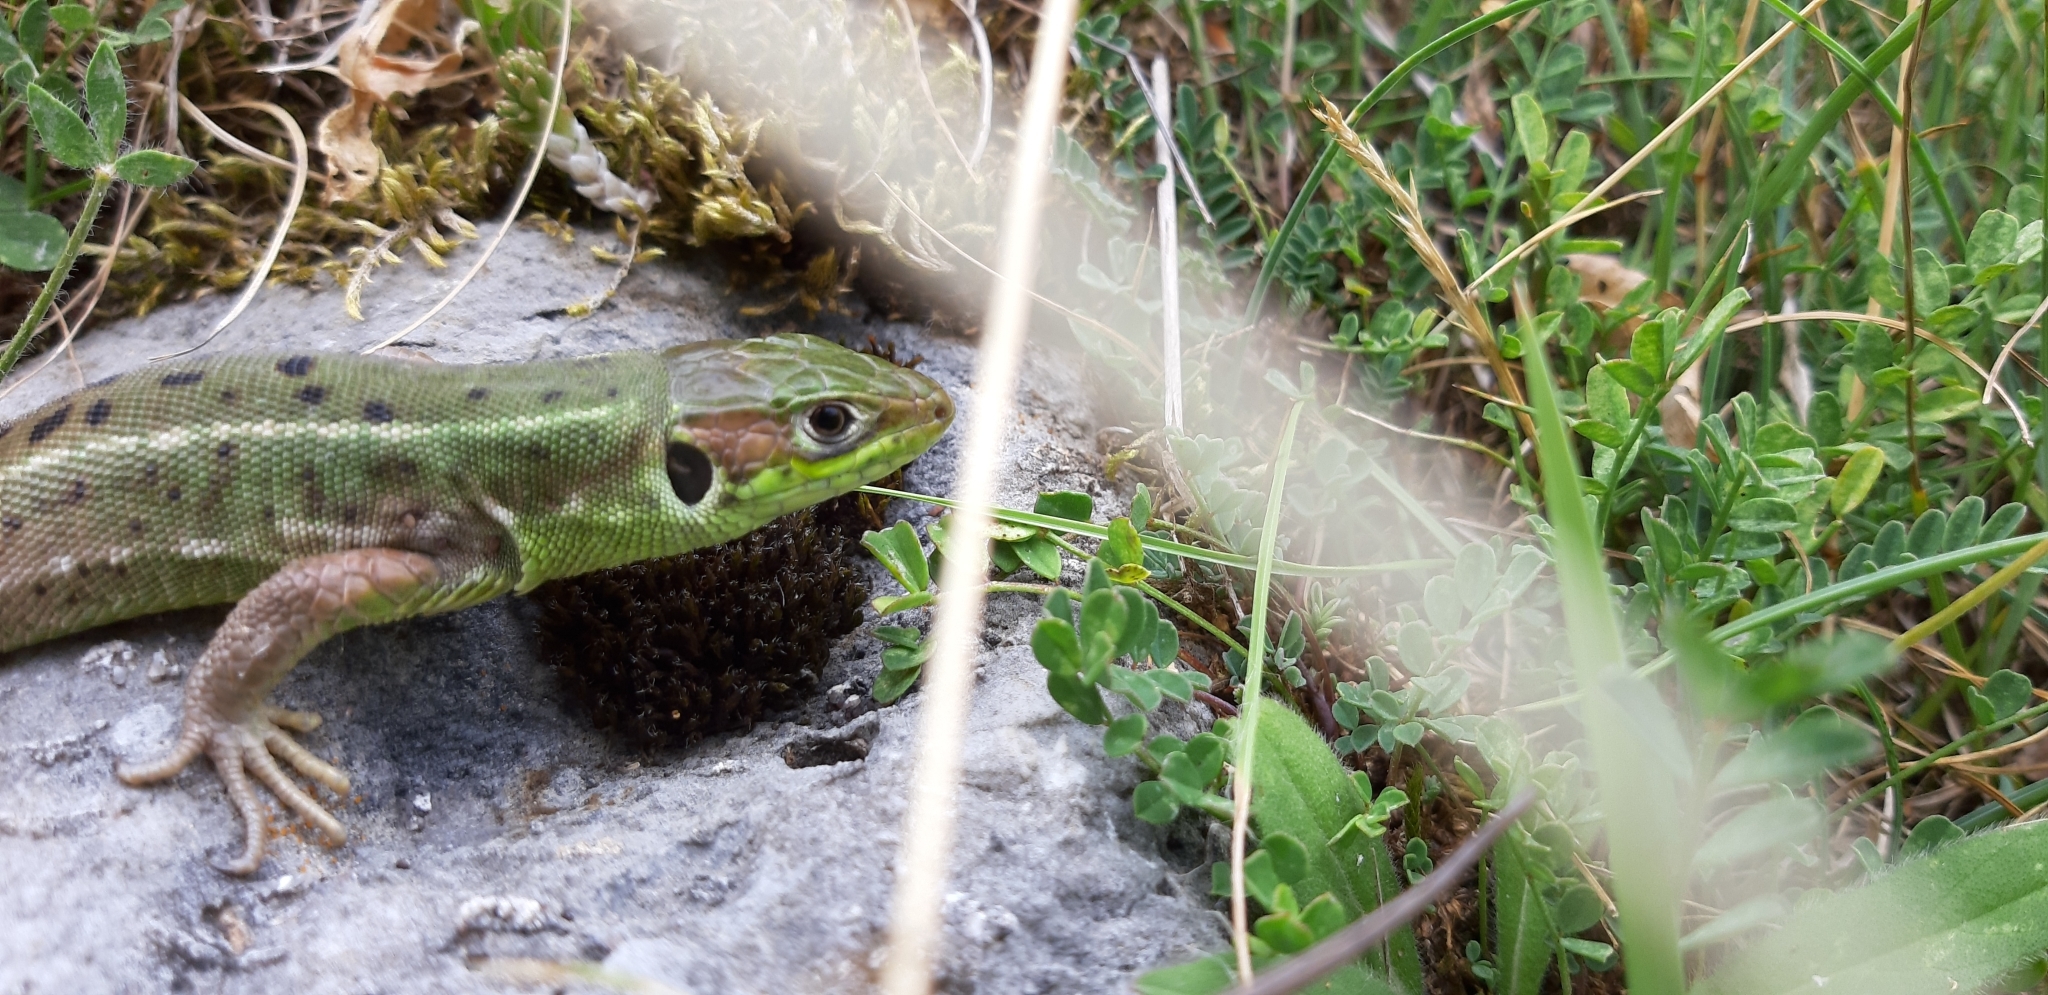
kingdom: Animalia
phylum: Chordata
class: Squamata
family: Lacertidae
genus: Lacerta
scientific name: Lacerta bilineata
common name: Western green lizard
